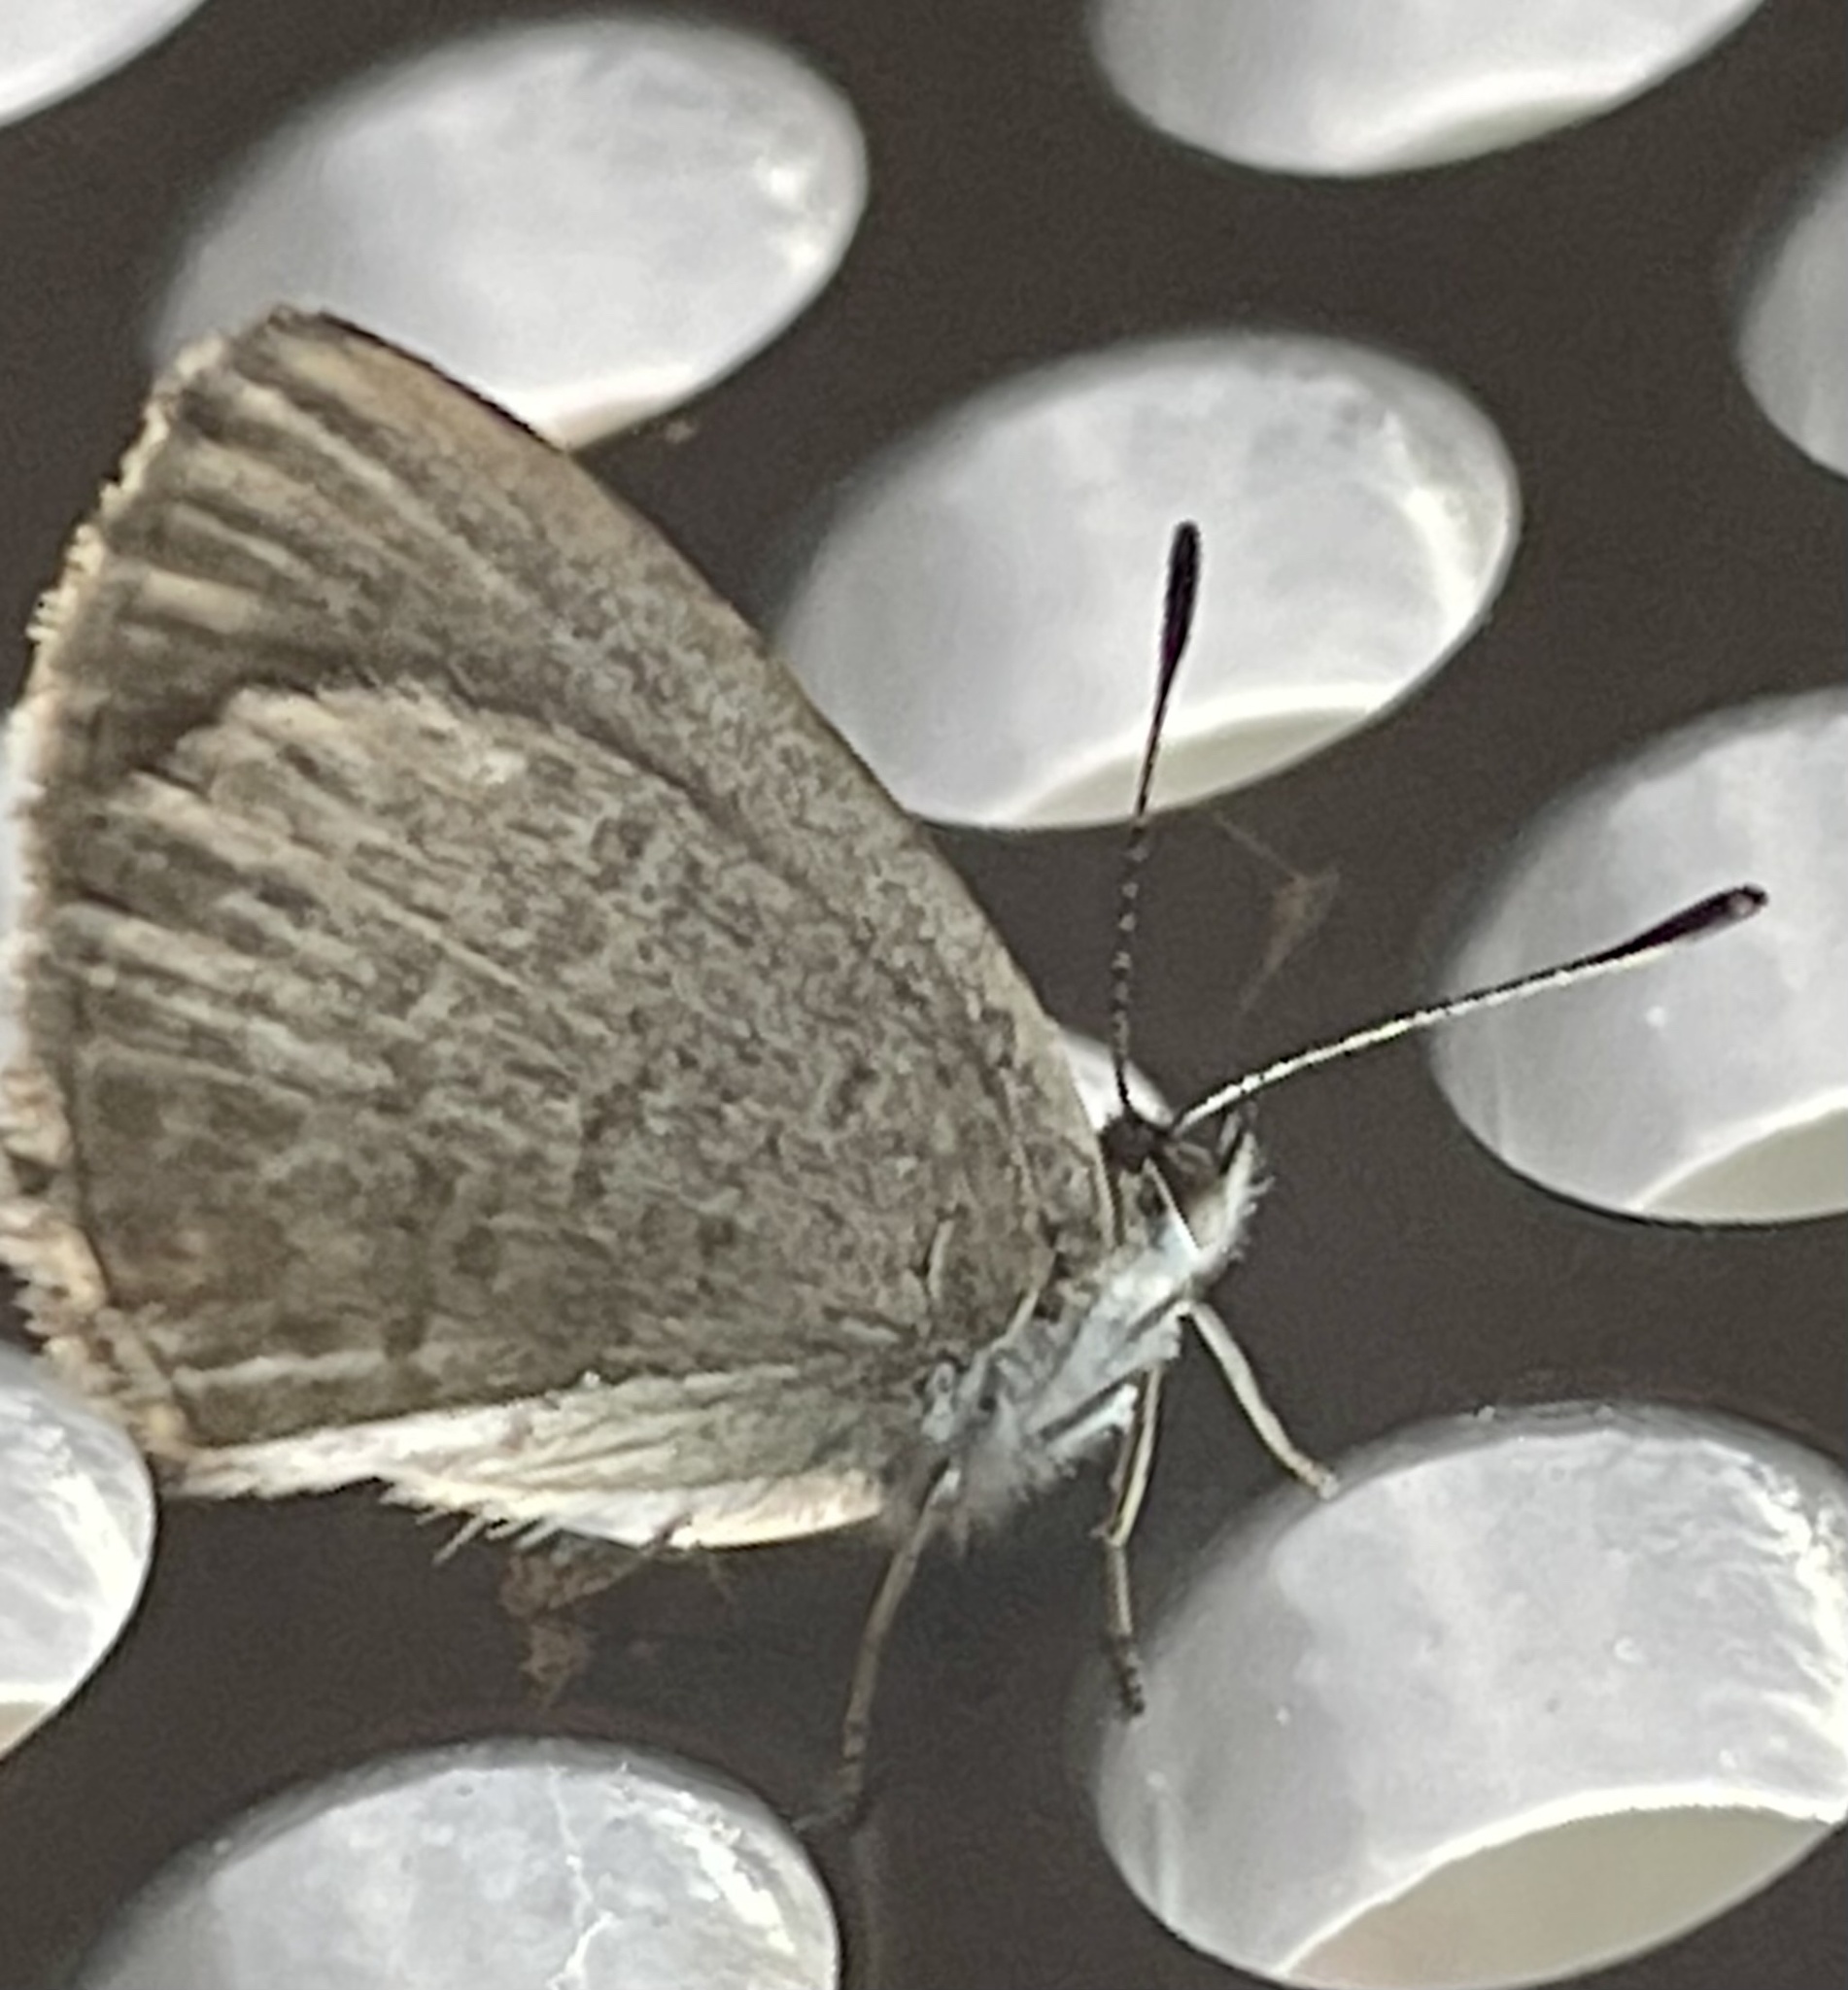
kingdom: Animalia
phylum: Arthropoda
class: Insecta
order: Lepidoptera
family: Lycaenidae
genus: Zizina
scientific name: Zizina otis
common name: Lesser grass blue
